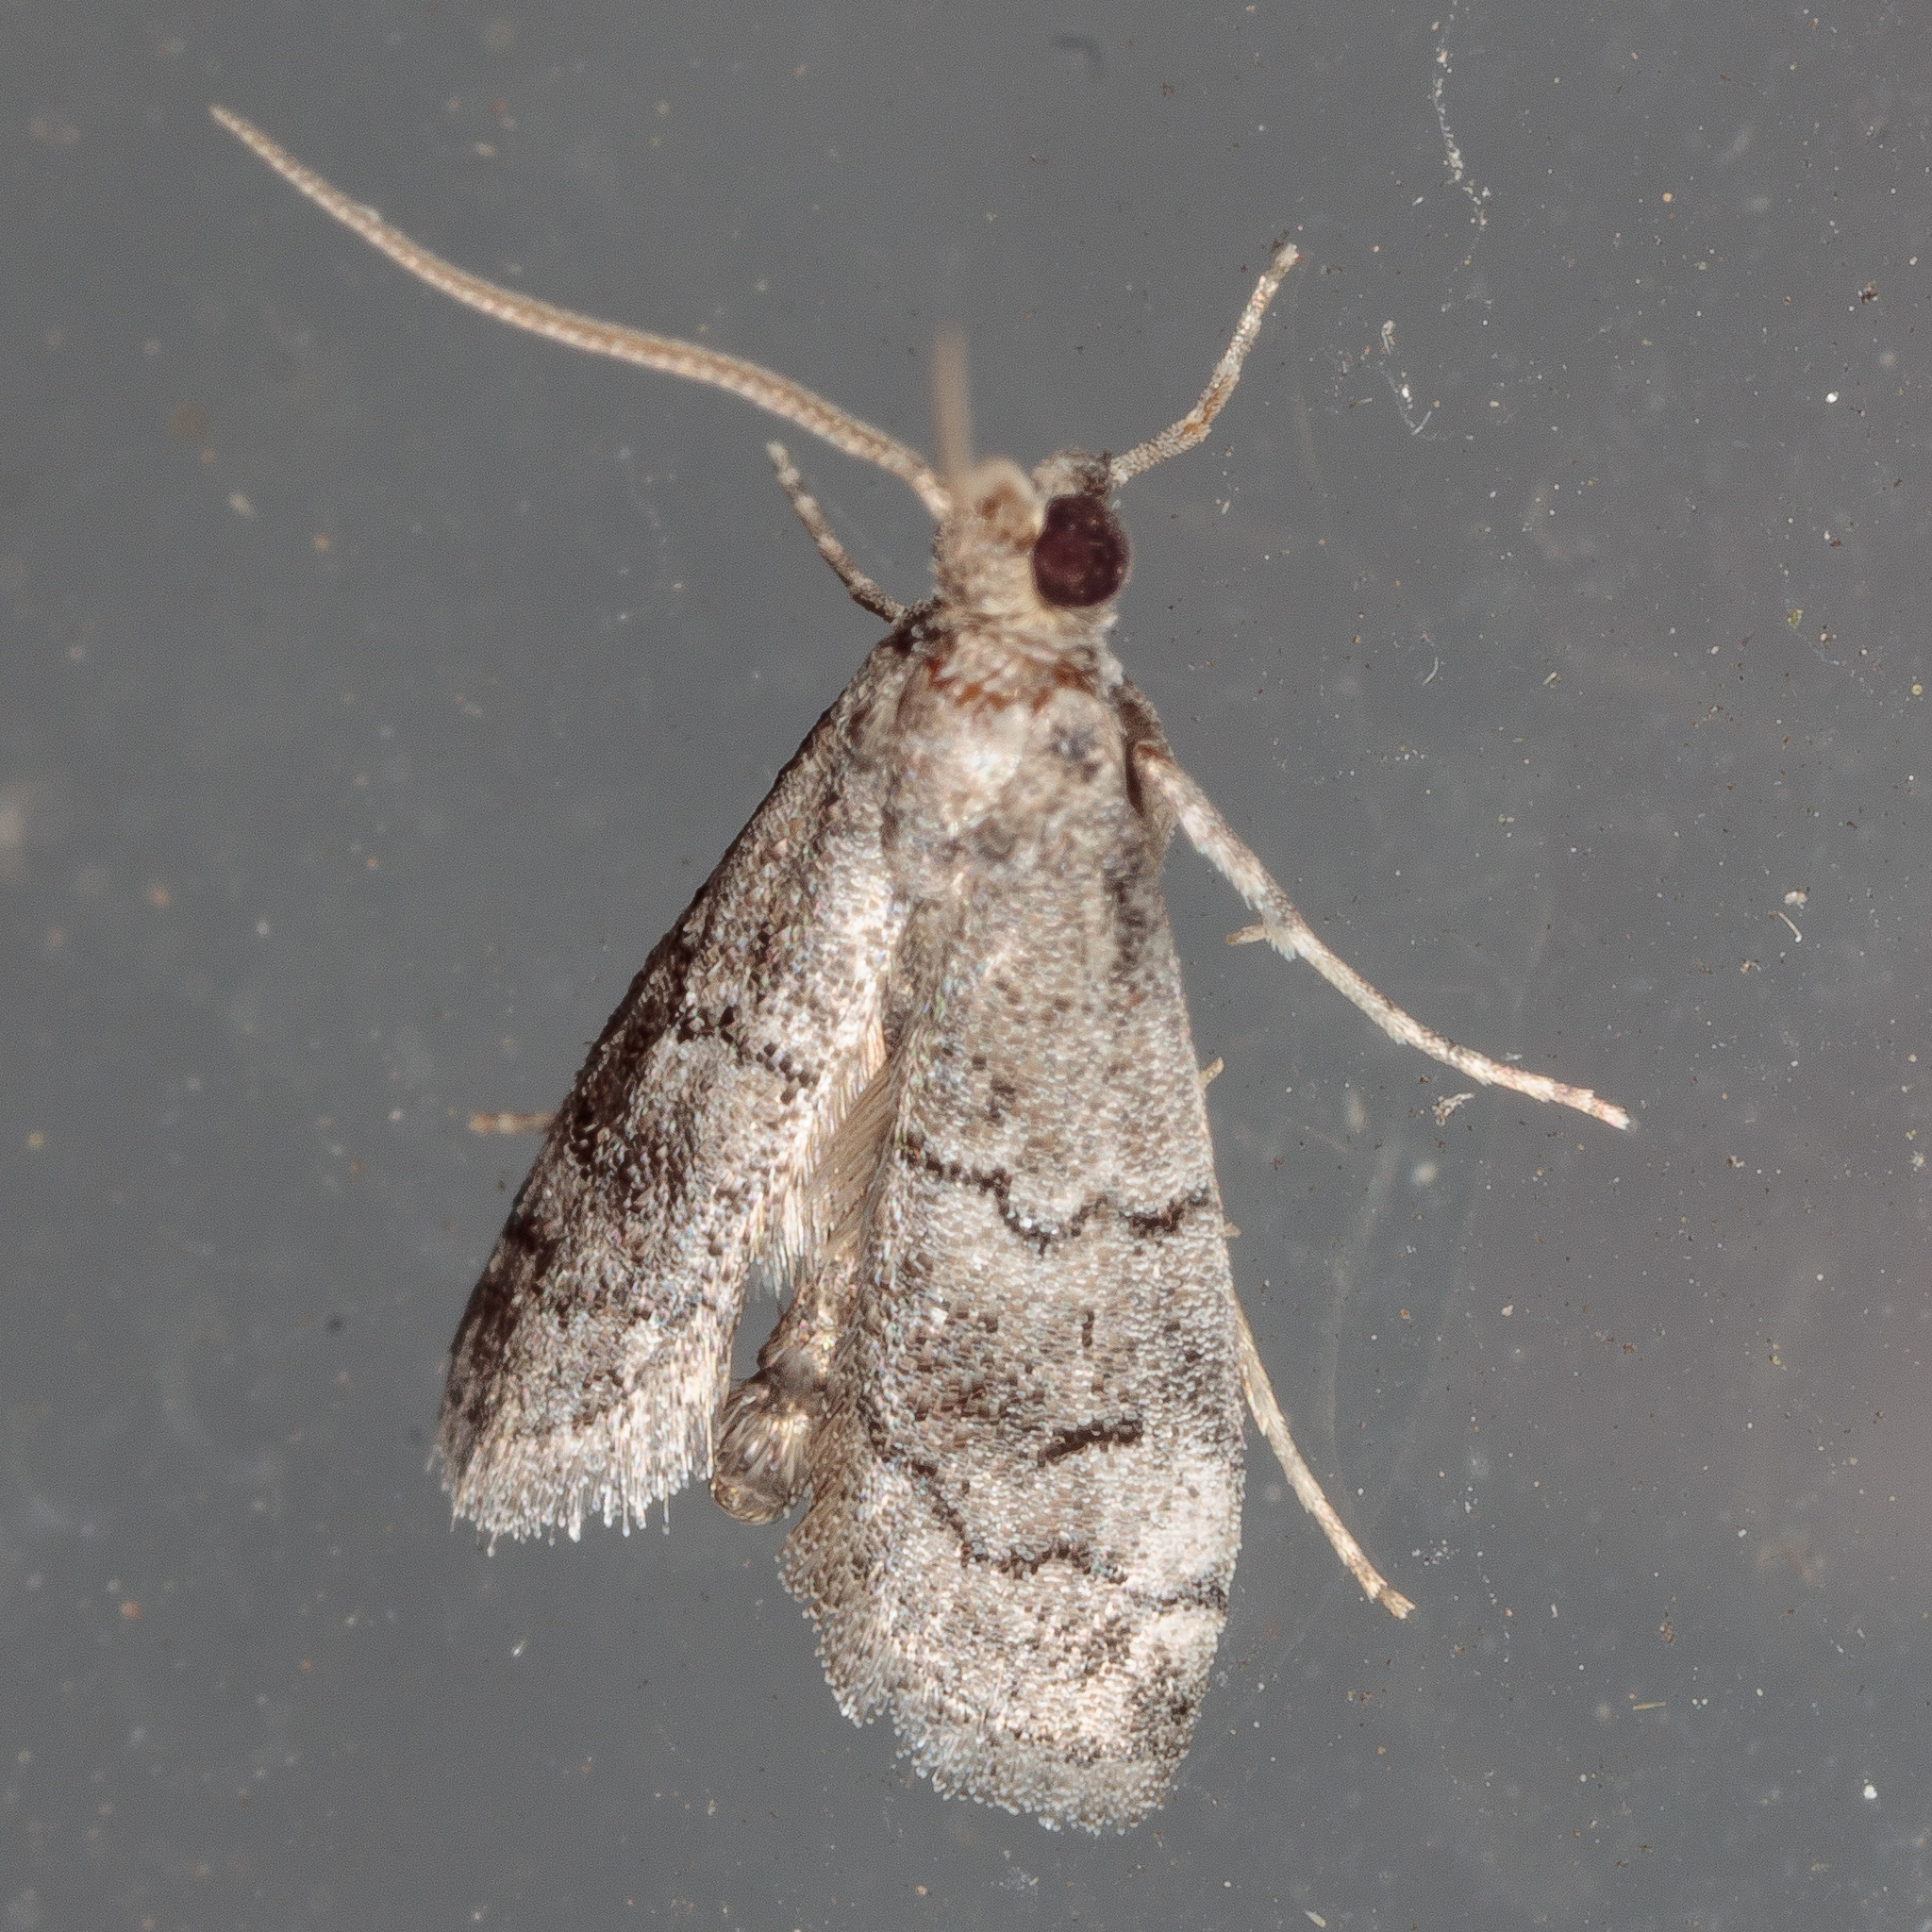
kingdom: Animalia
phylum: Arthropoda
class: Insecta
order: Lepidoptera
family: Pyralidae
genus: Cacotherapia
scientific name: Cacotherapia flexilinealis
